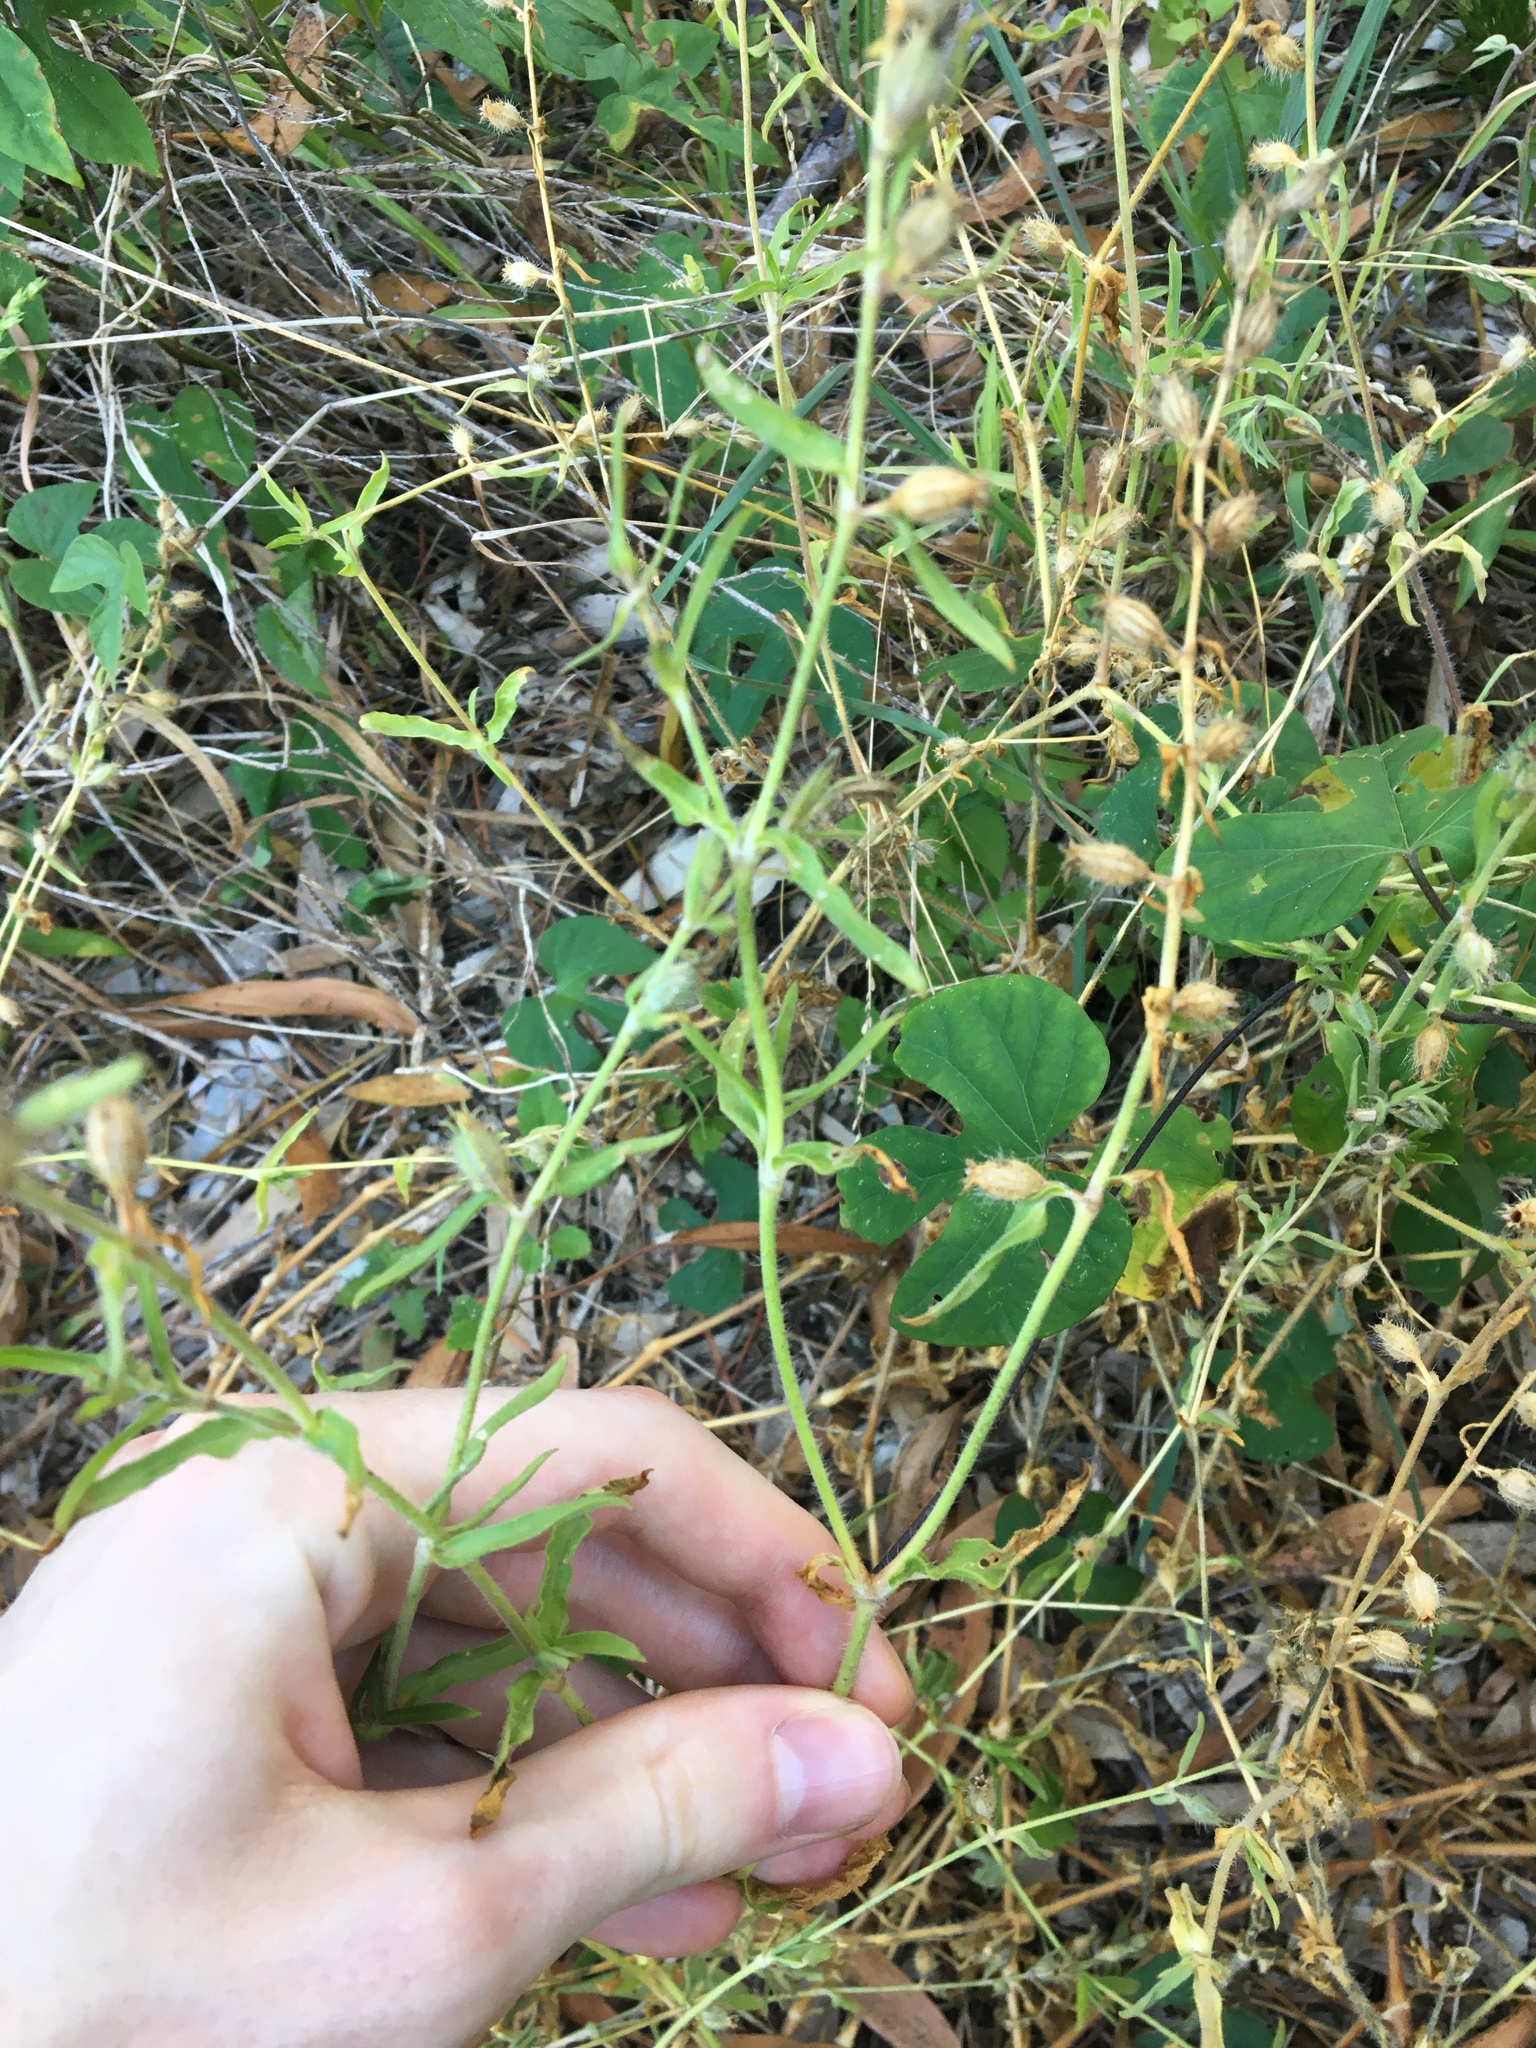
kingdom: Plantae
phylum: Tracheophyta
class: Magnoliopsida
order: Caryophyllales
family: Caryophyllaceae
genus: Silene
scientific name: Silene gallica
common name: Small-flowered catchfly
